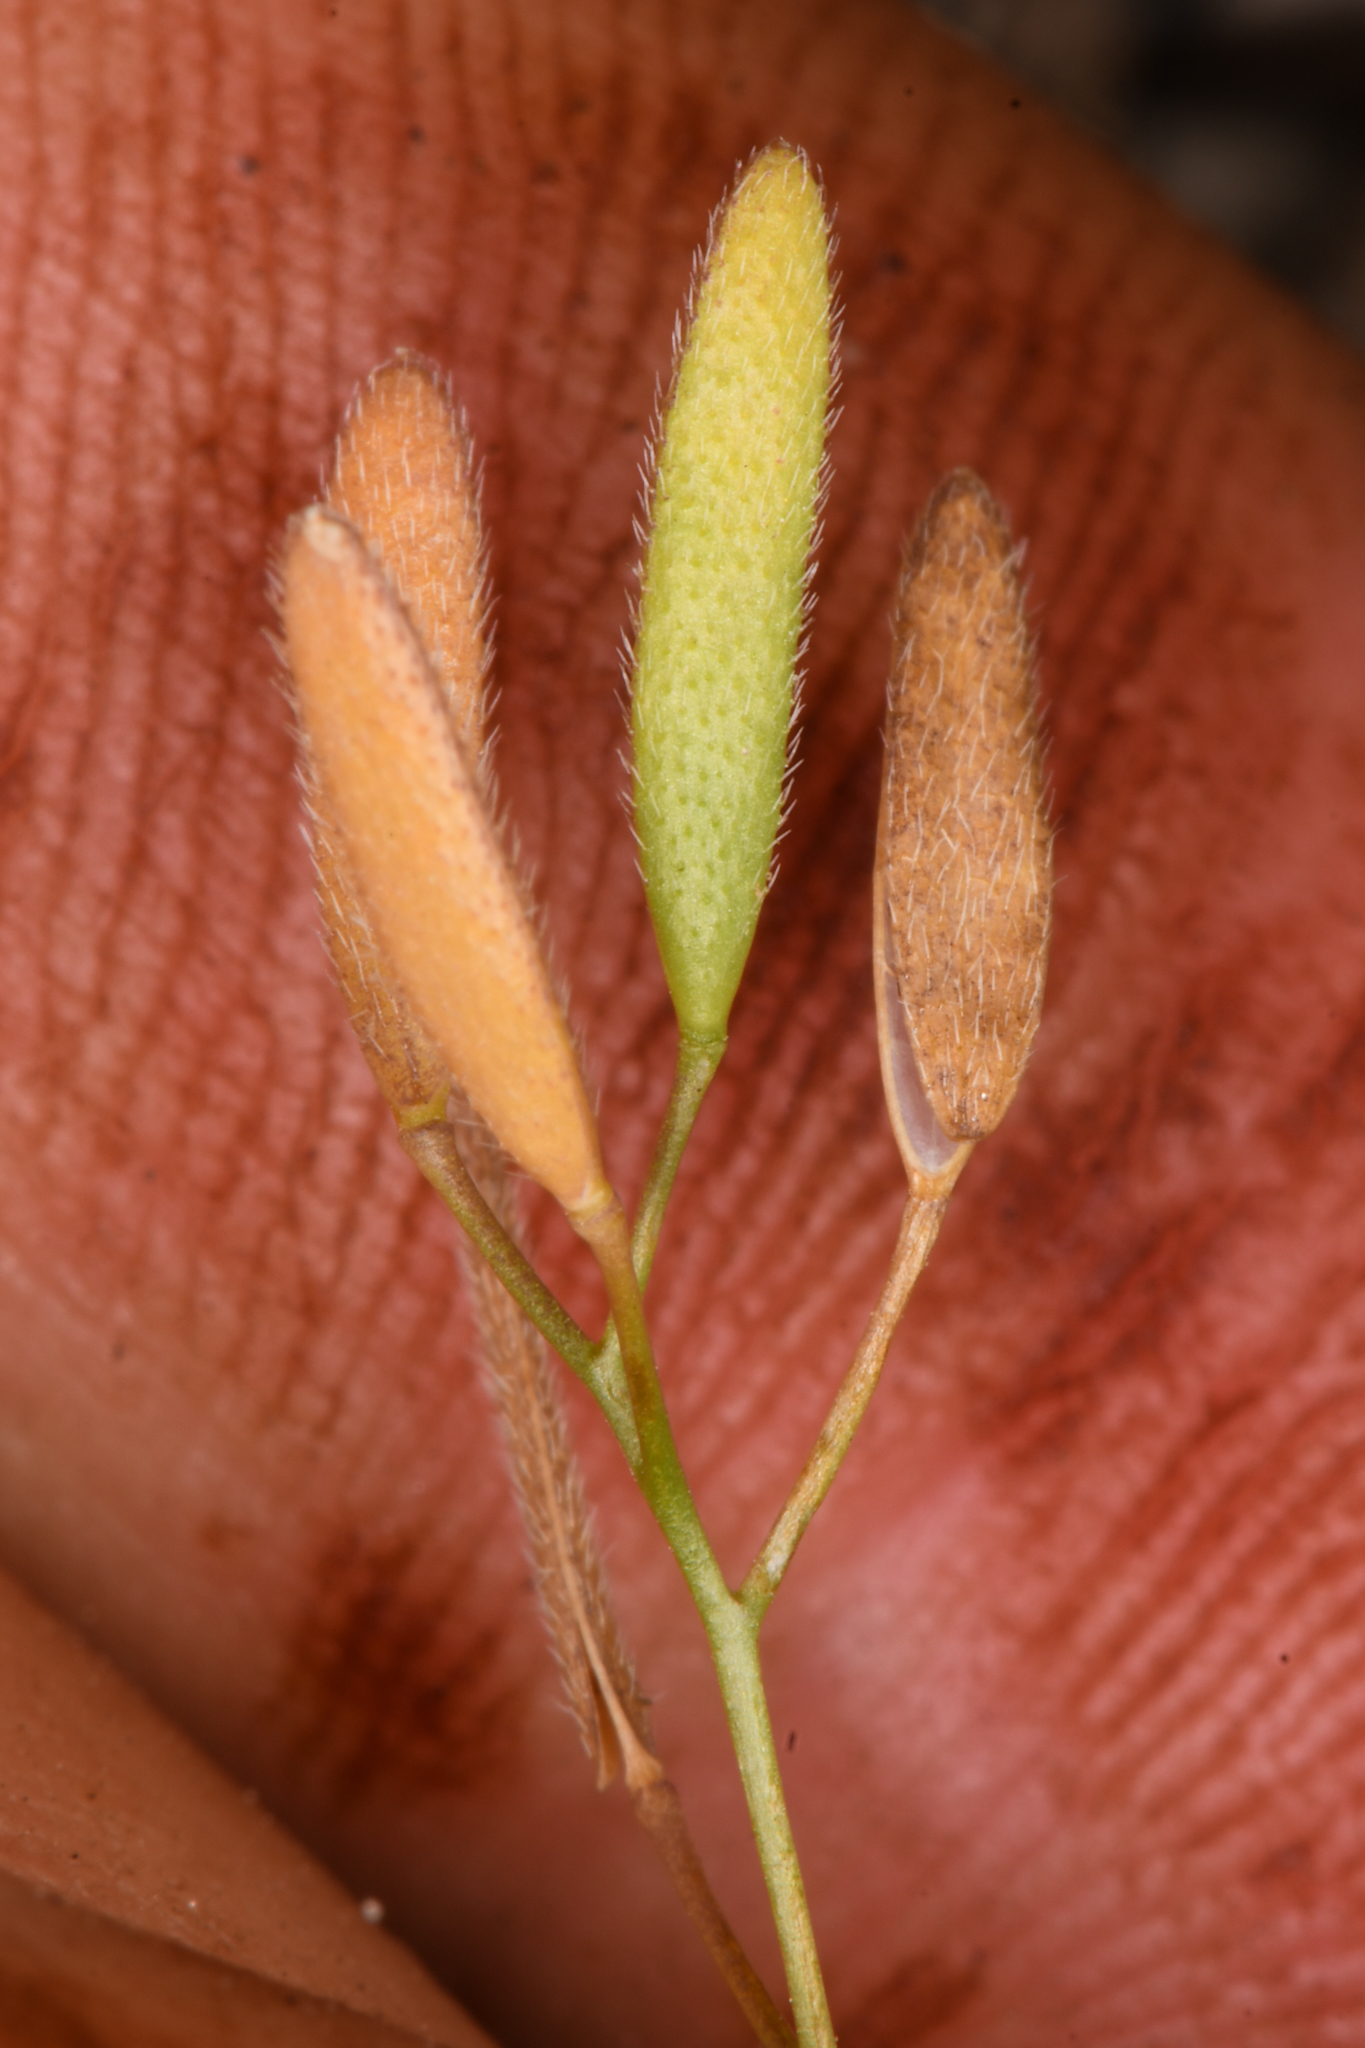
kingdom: Plantae
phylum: Tracheophyta
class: Magnoliopsida
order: Brassicales
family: Brassicaceae
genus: Tomostima
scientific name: Tomostima reptans
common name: Carolina draba
